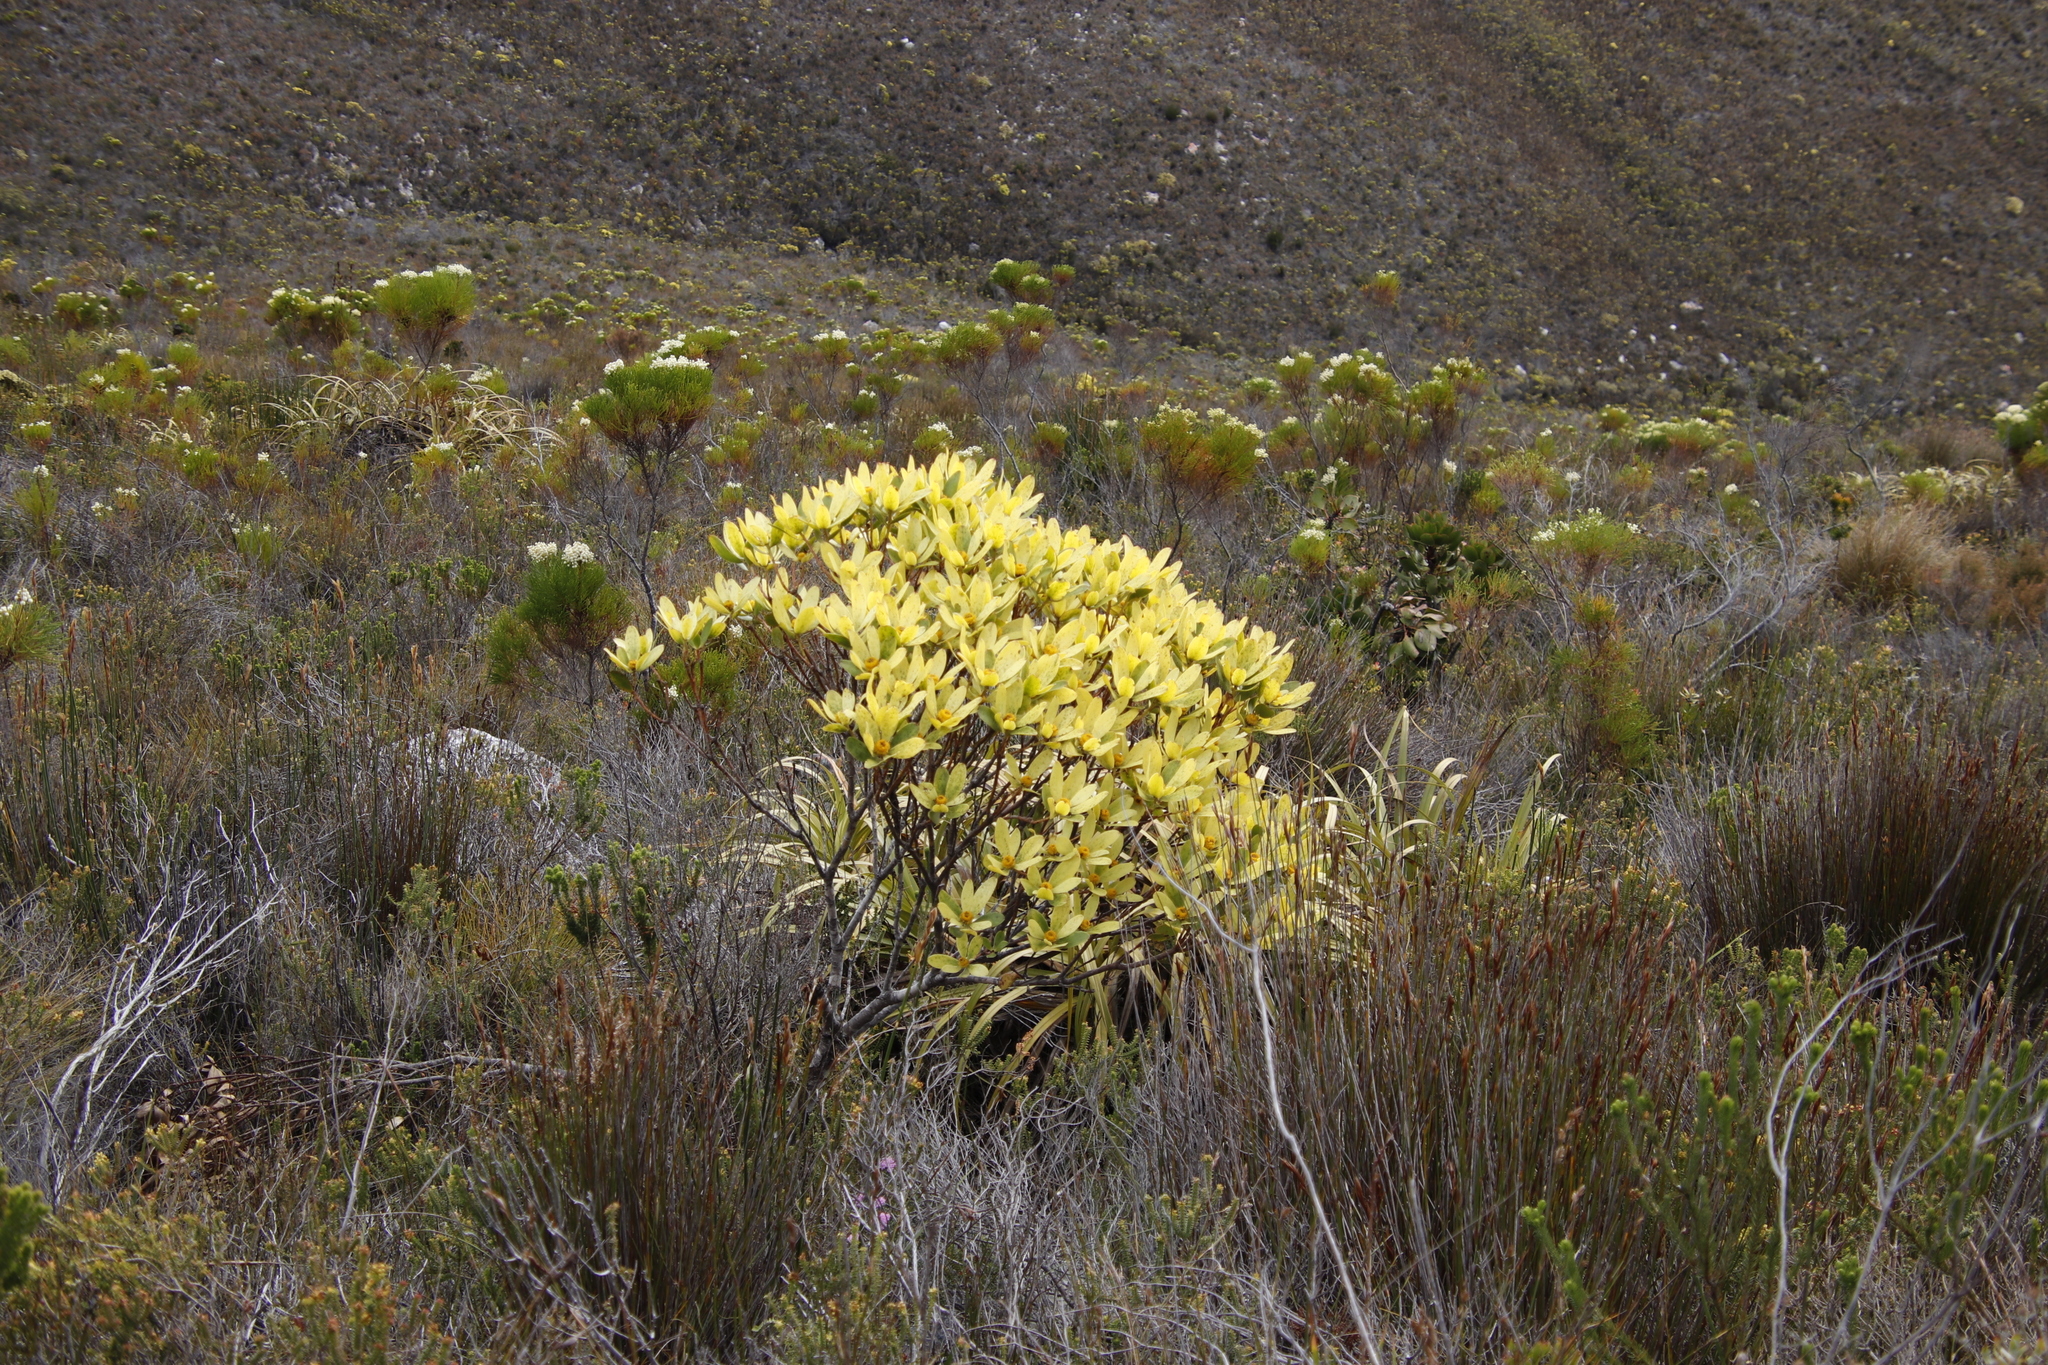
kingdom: Plantae
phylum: Tracheophyta
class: Magnoliopsida
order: Proteales
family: Proteaceae
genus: Leucadendron
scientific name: Leucadendron gandogeri
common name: Broad-leaf conebush
